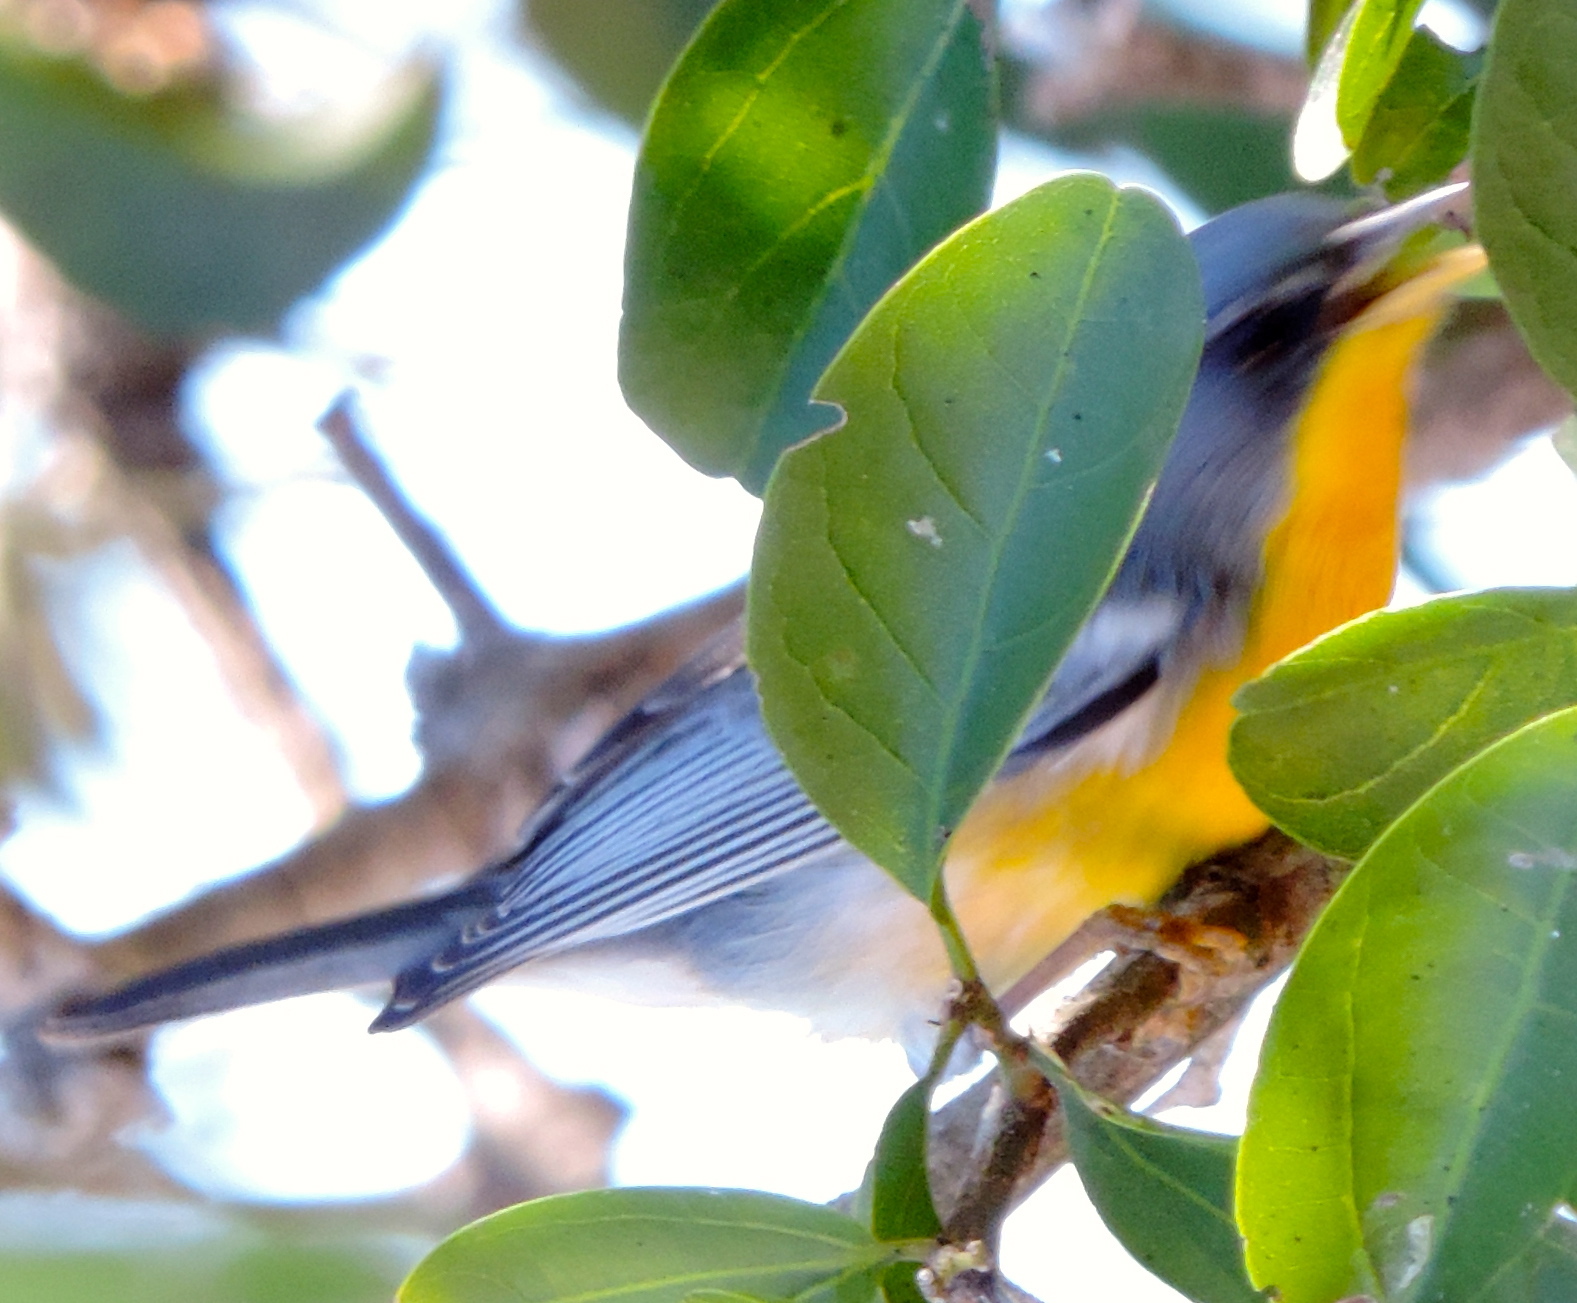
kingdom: Animalia
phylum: Chordata
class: Aves
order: Passeriformes
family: Parulidae
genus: Setophaga
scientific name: Setophaga pitiayumi
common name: Tropical parula
